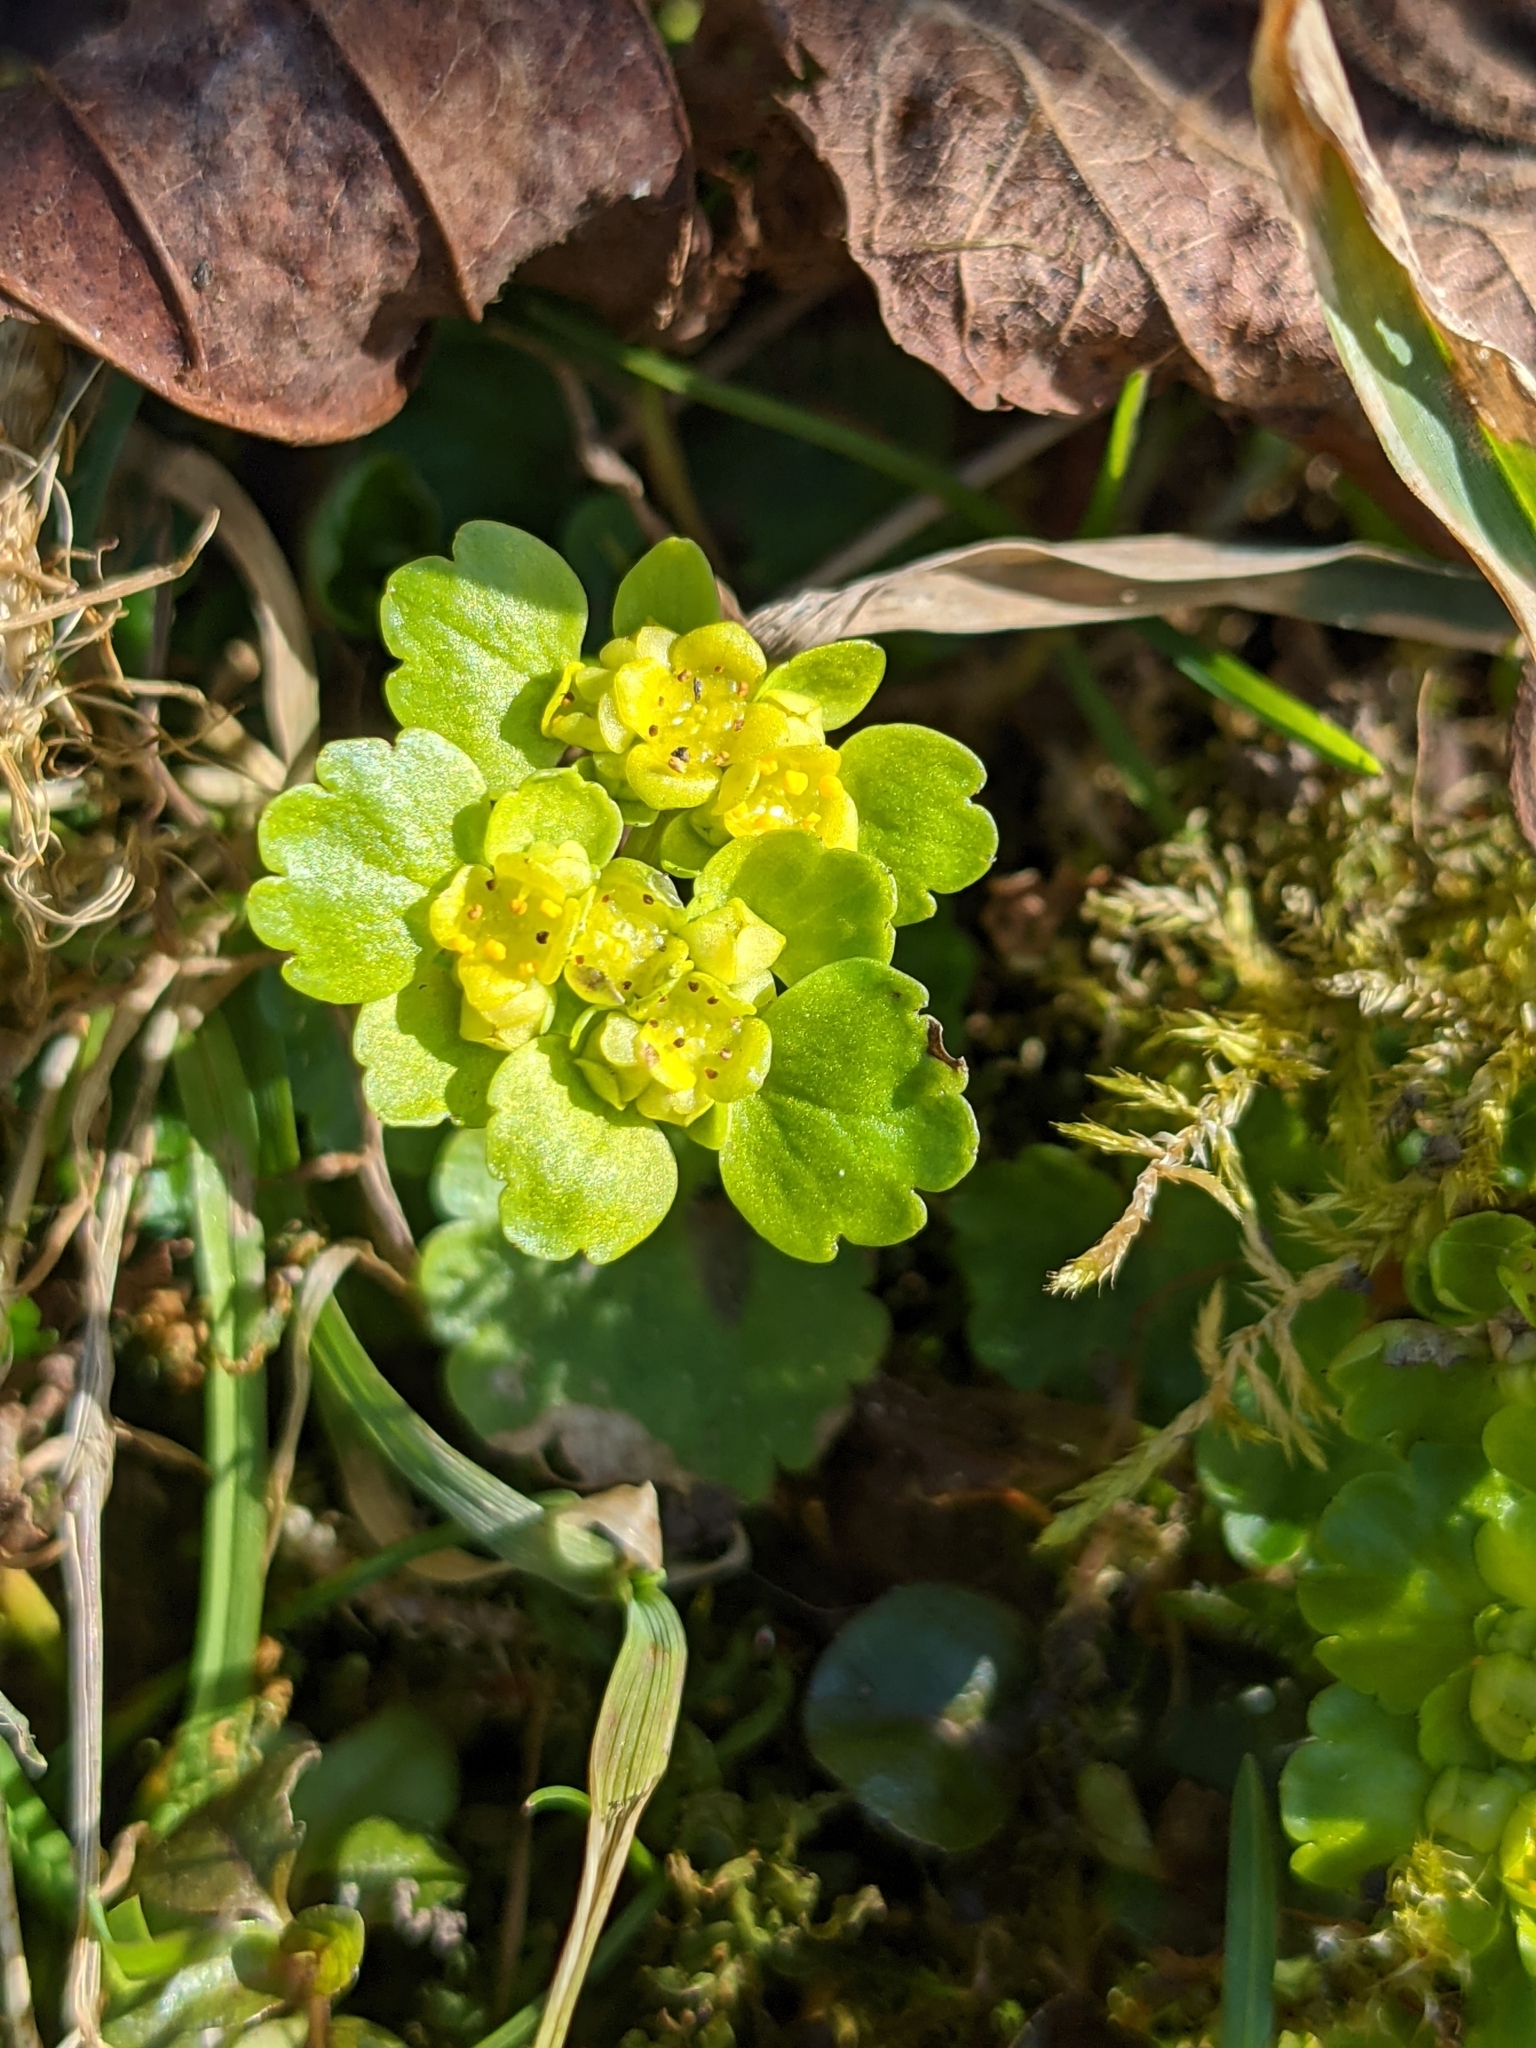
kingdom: Plantae
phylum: Tracheophyta
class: Magnoliopsida
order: Saxifragales
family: Saxifragaceae
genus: Chrysosplenium
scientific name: Chrysosplenium alternifolium
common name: Alternate-leaved golden-saxifrage
